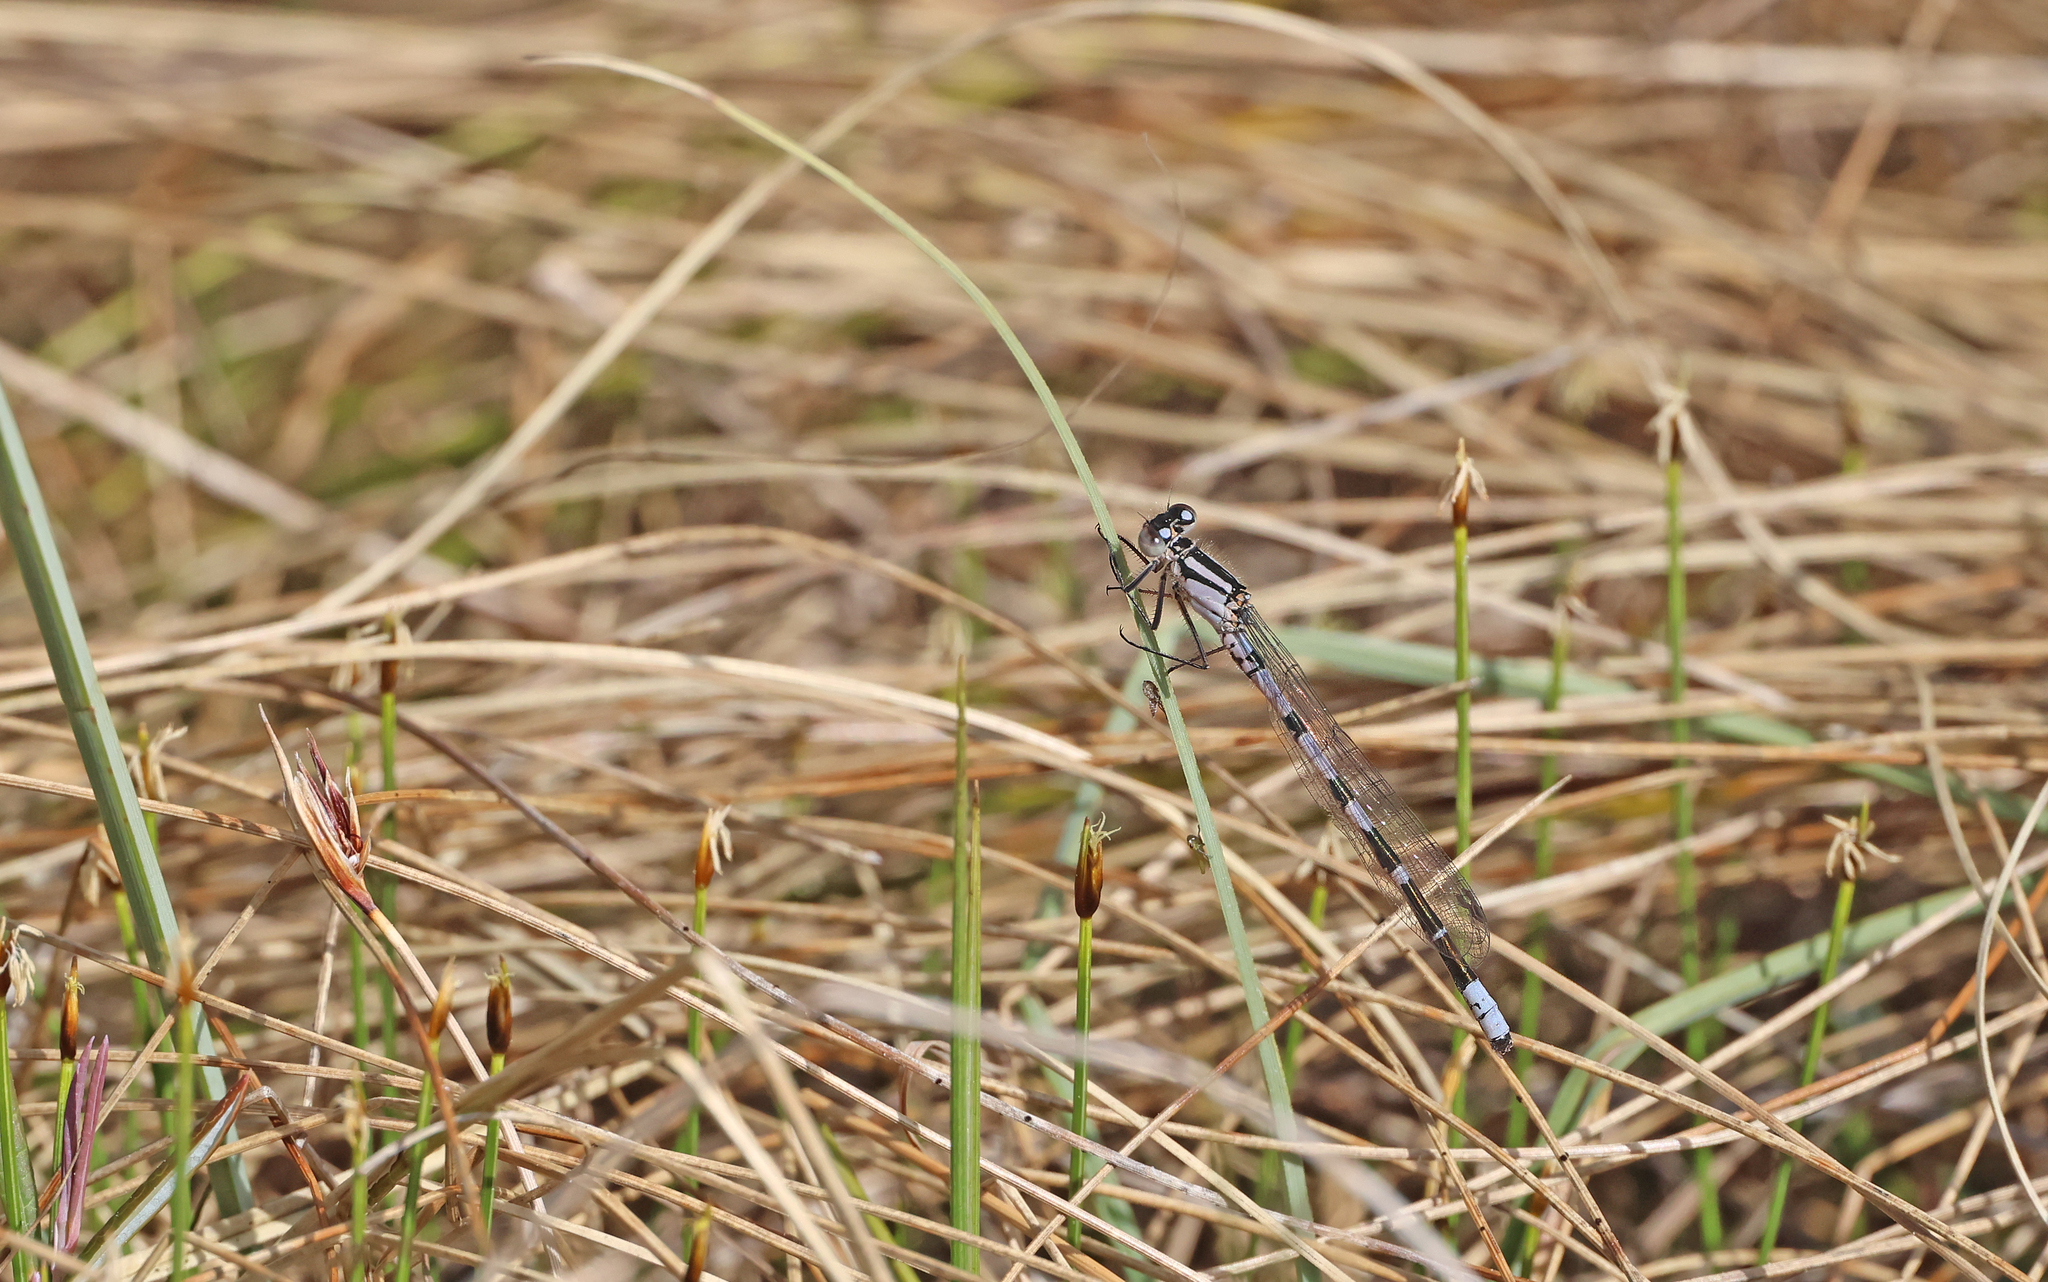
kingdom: Animalia
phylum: Arthropoda
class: Insecta
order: Odonata
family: Coenagrionidae
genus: Enallagma
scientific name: Enallagma cyathigerum
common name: Common blue damselfly
